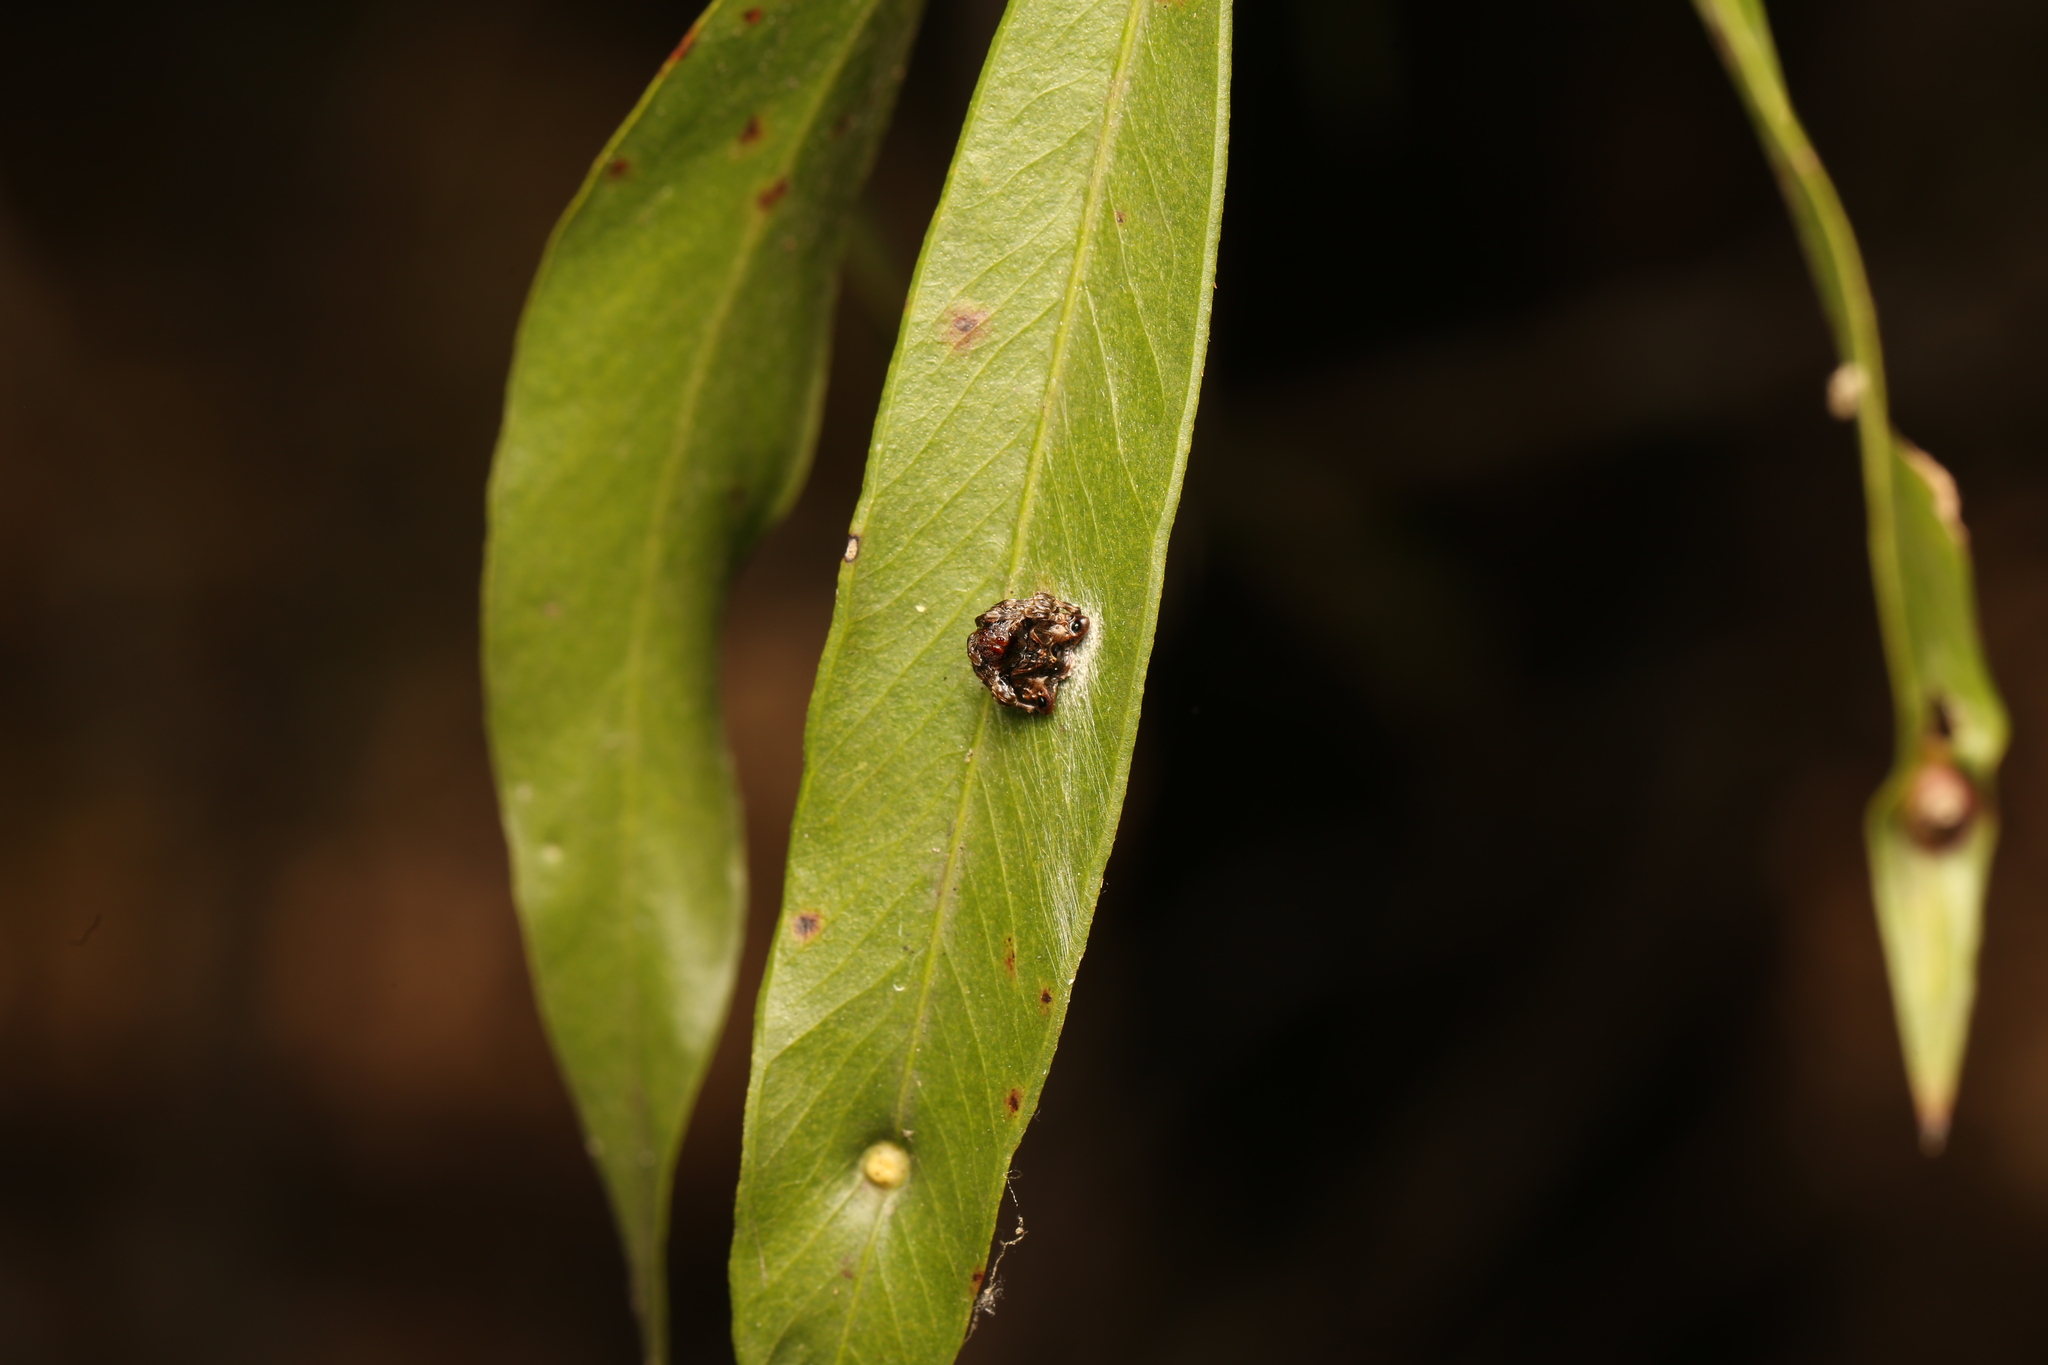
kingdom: Animalia
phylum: Arthropoda
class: Arachnida
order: Araneae
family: Arkyidae
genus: Arkys
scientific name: Arkys curtulus
